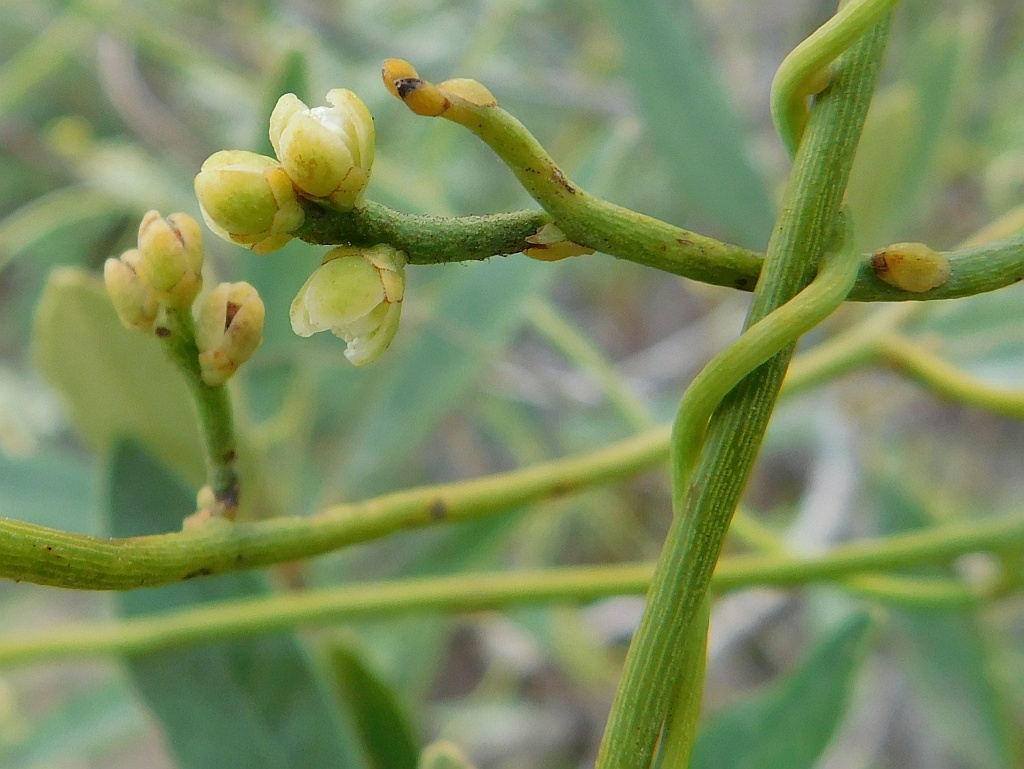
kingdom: Plantae
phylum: Tracheophyta
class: Magnoliopsida
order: Laurales
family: Lauraceae
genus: Cassytha
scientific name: Cassytha ciliolata
